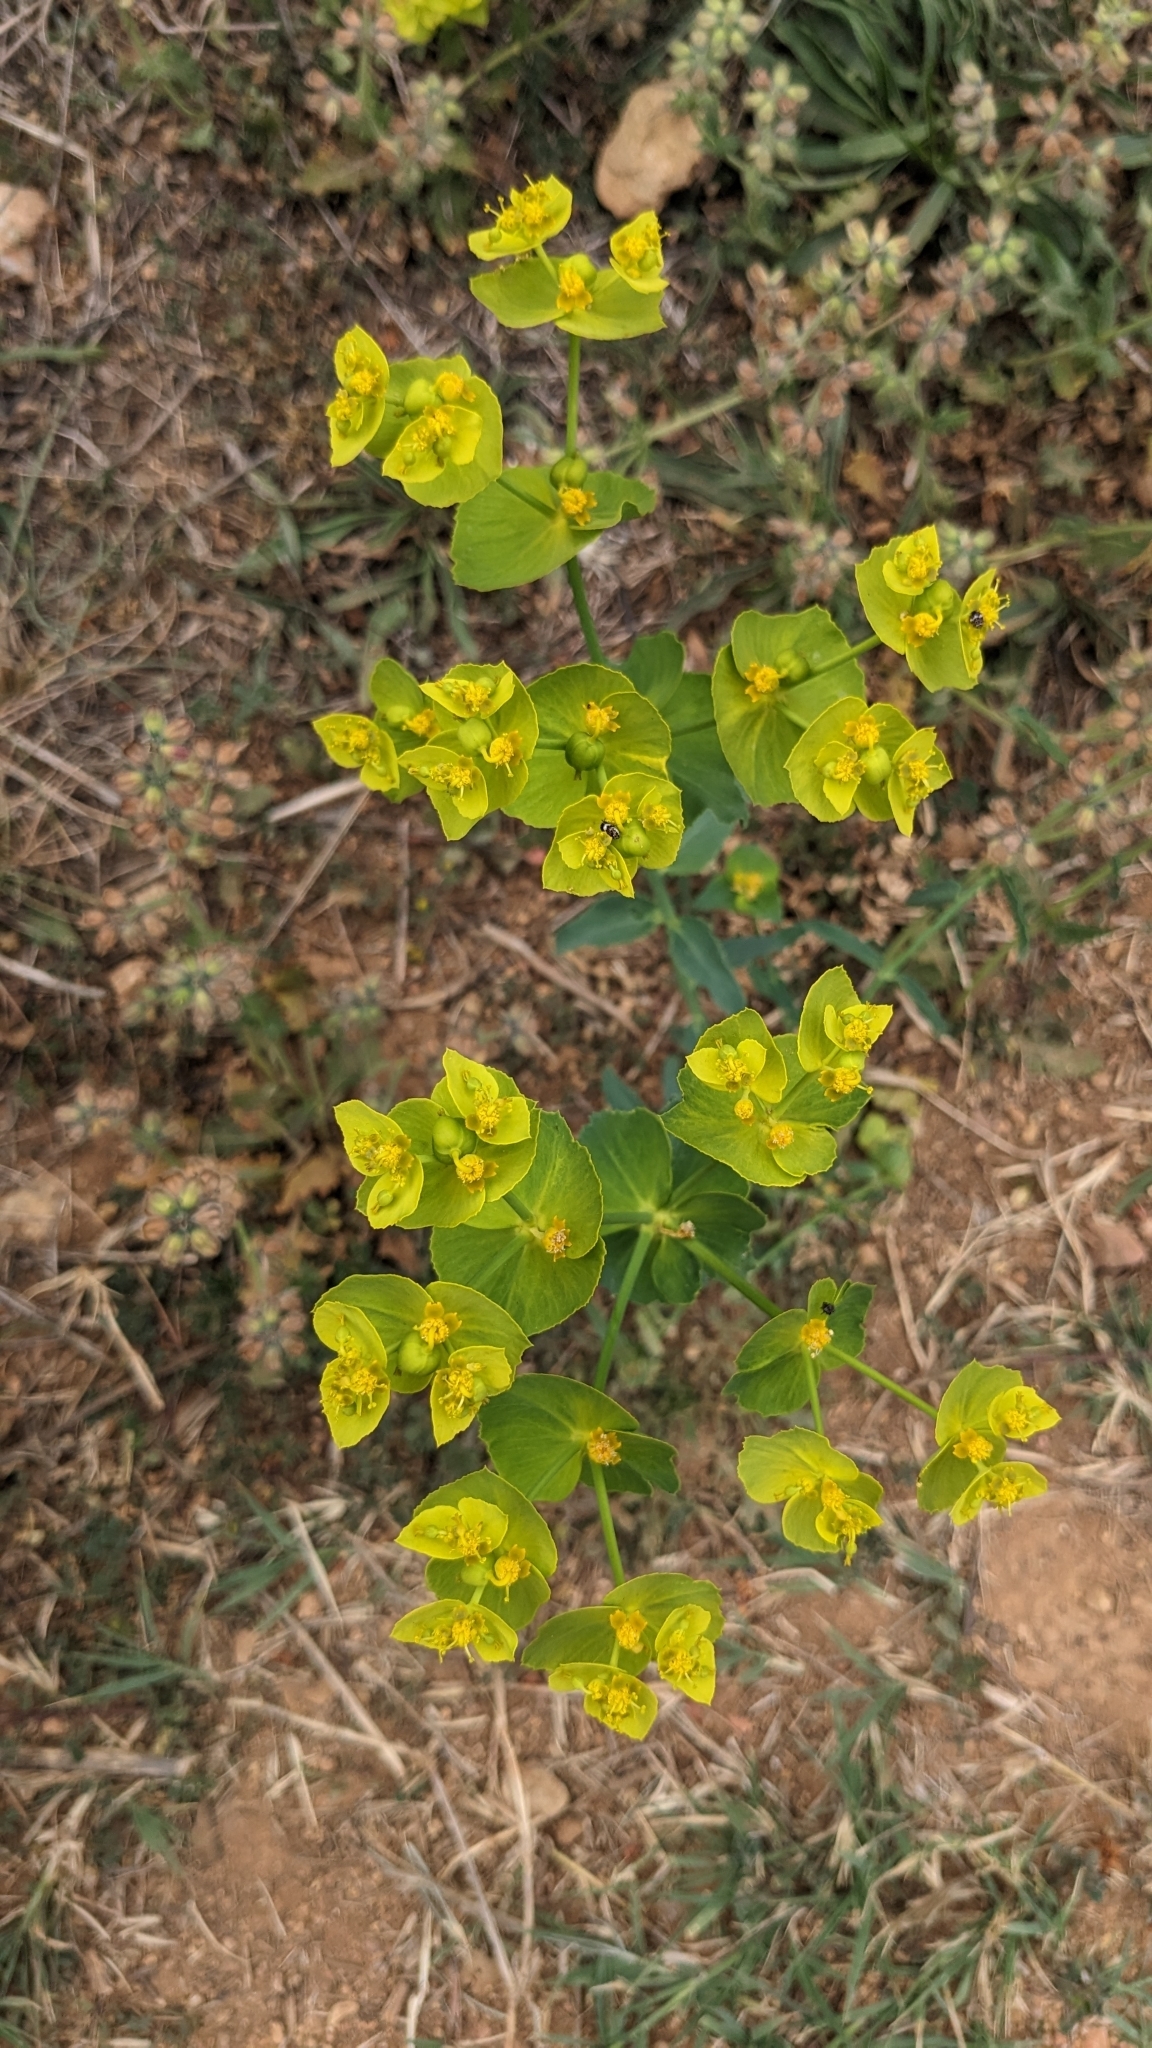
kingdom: Plantae
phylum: Tracheophyta
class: Magnoliopsida
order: Malpighiales
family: Euphorbiaceae
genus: Euphorbia
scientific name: Euphorbia serrata
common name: Serrate spurge
